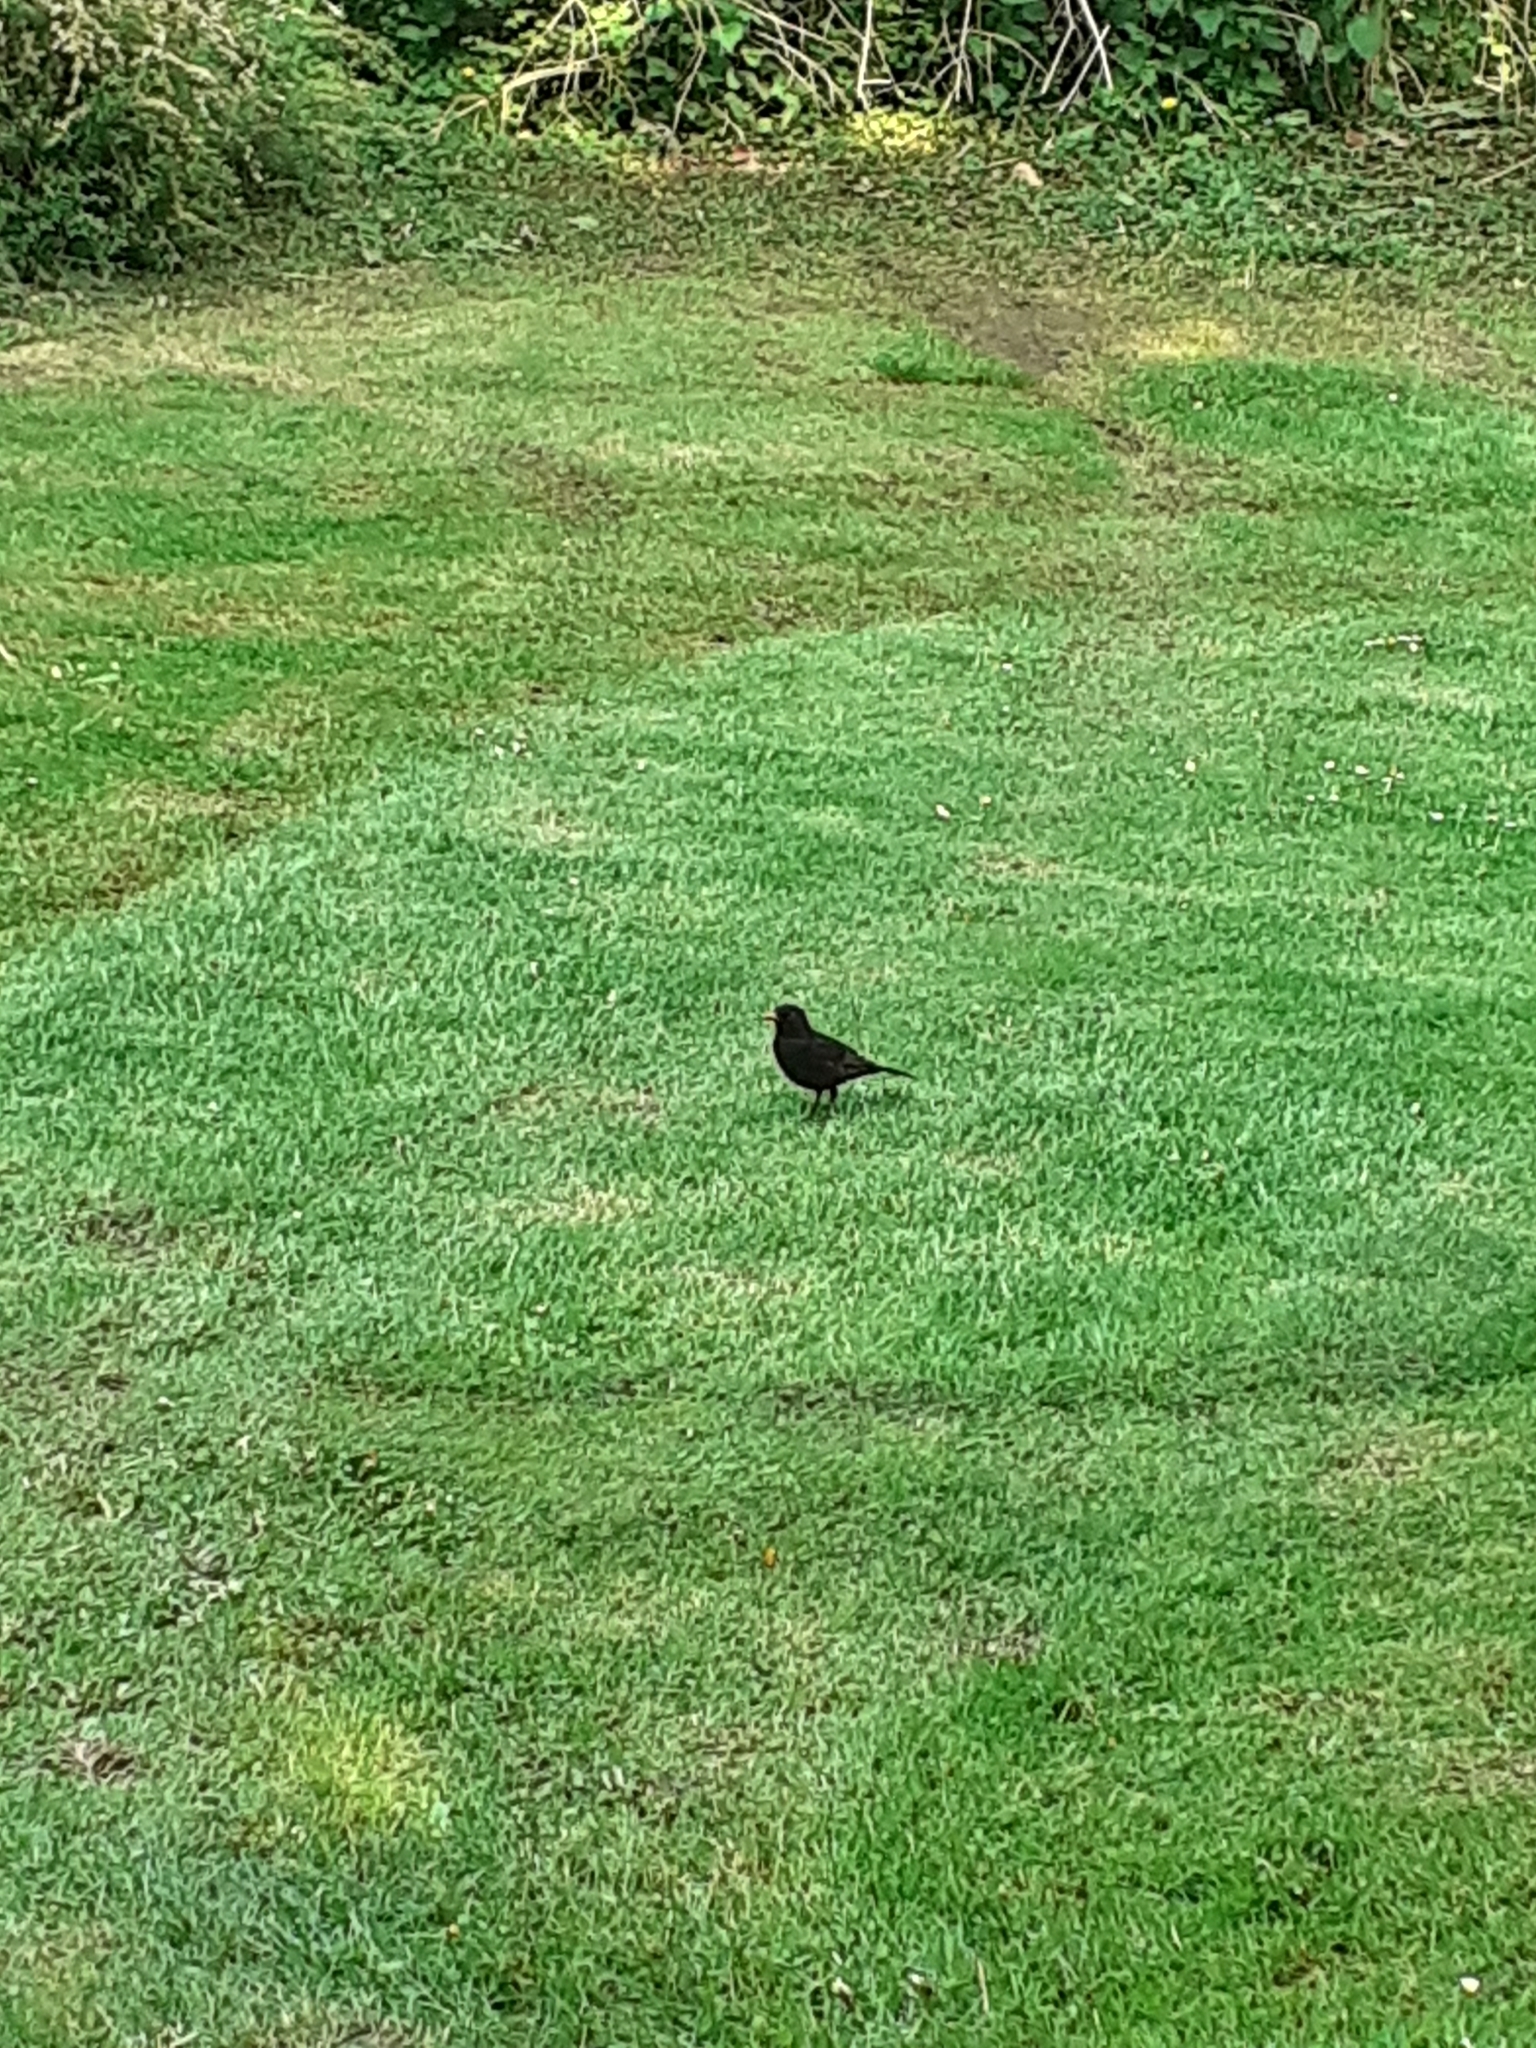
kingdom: Animalia
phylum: Chordata
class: Aves
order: Passeriformes
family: Turdidae
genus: Turdus
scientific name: Turdus merula
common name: Common blackbird
